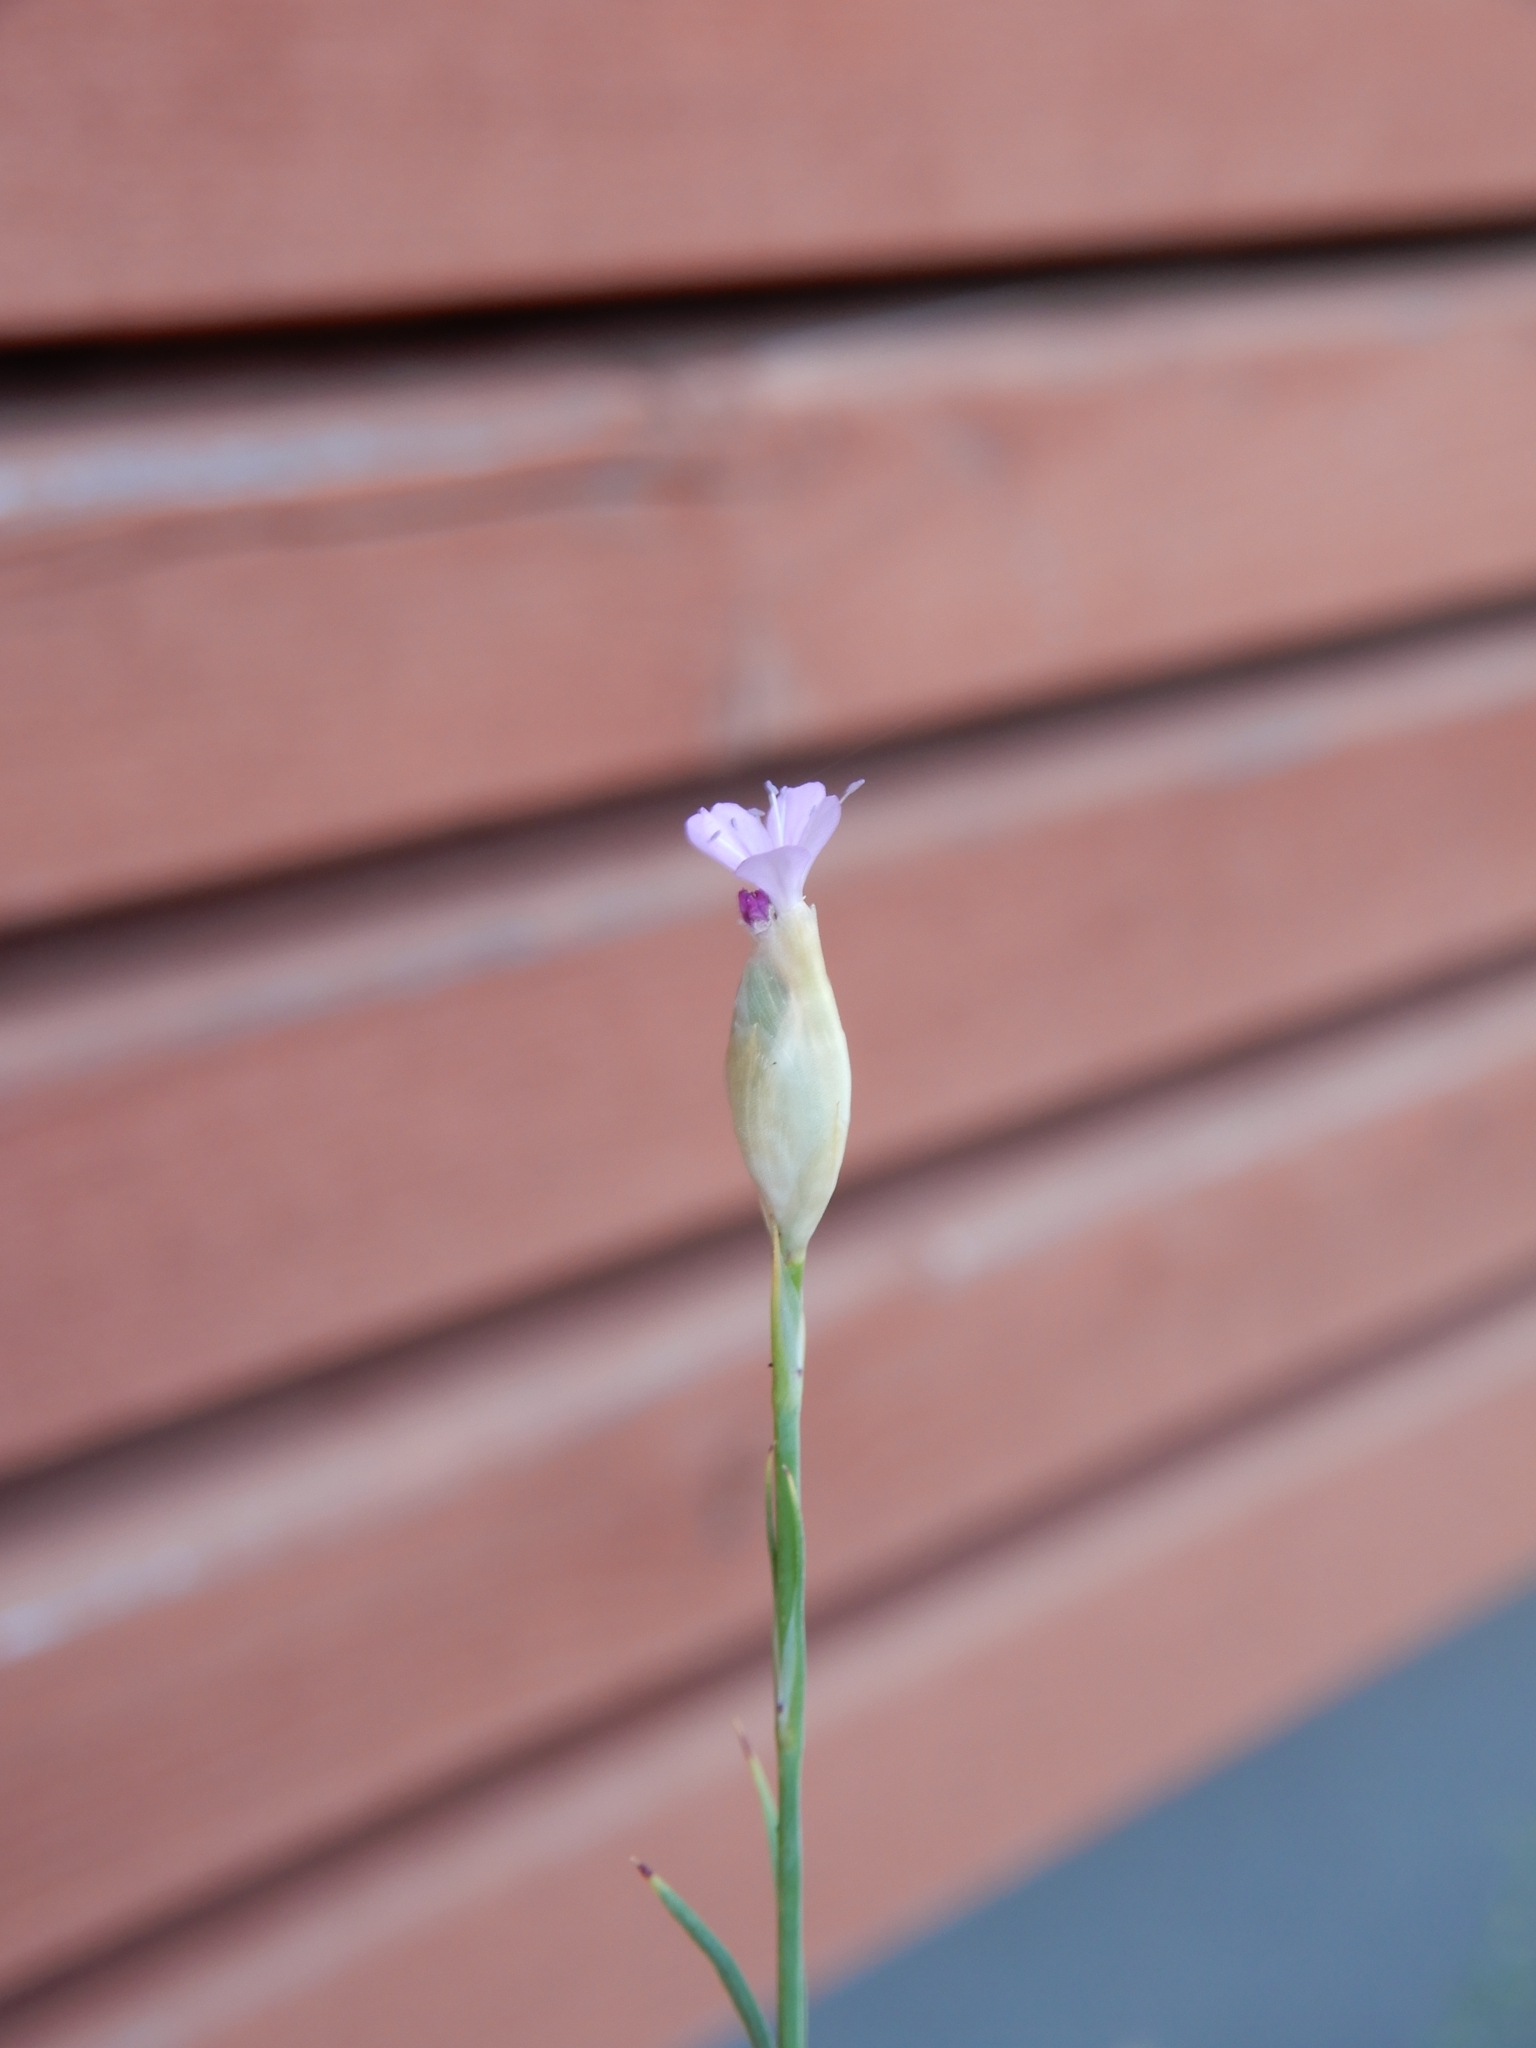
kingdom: Plantae
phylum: Tracheophyta
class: Magnoliopsida
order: Caryophyllales
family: Caryophyllaceae
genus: Petrorhagia
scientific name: Petrorhagia prolifera
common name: Proliferous pink
